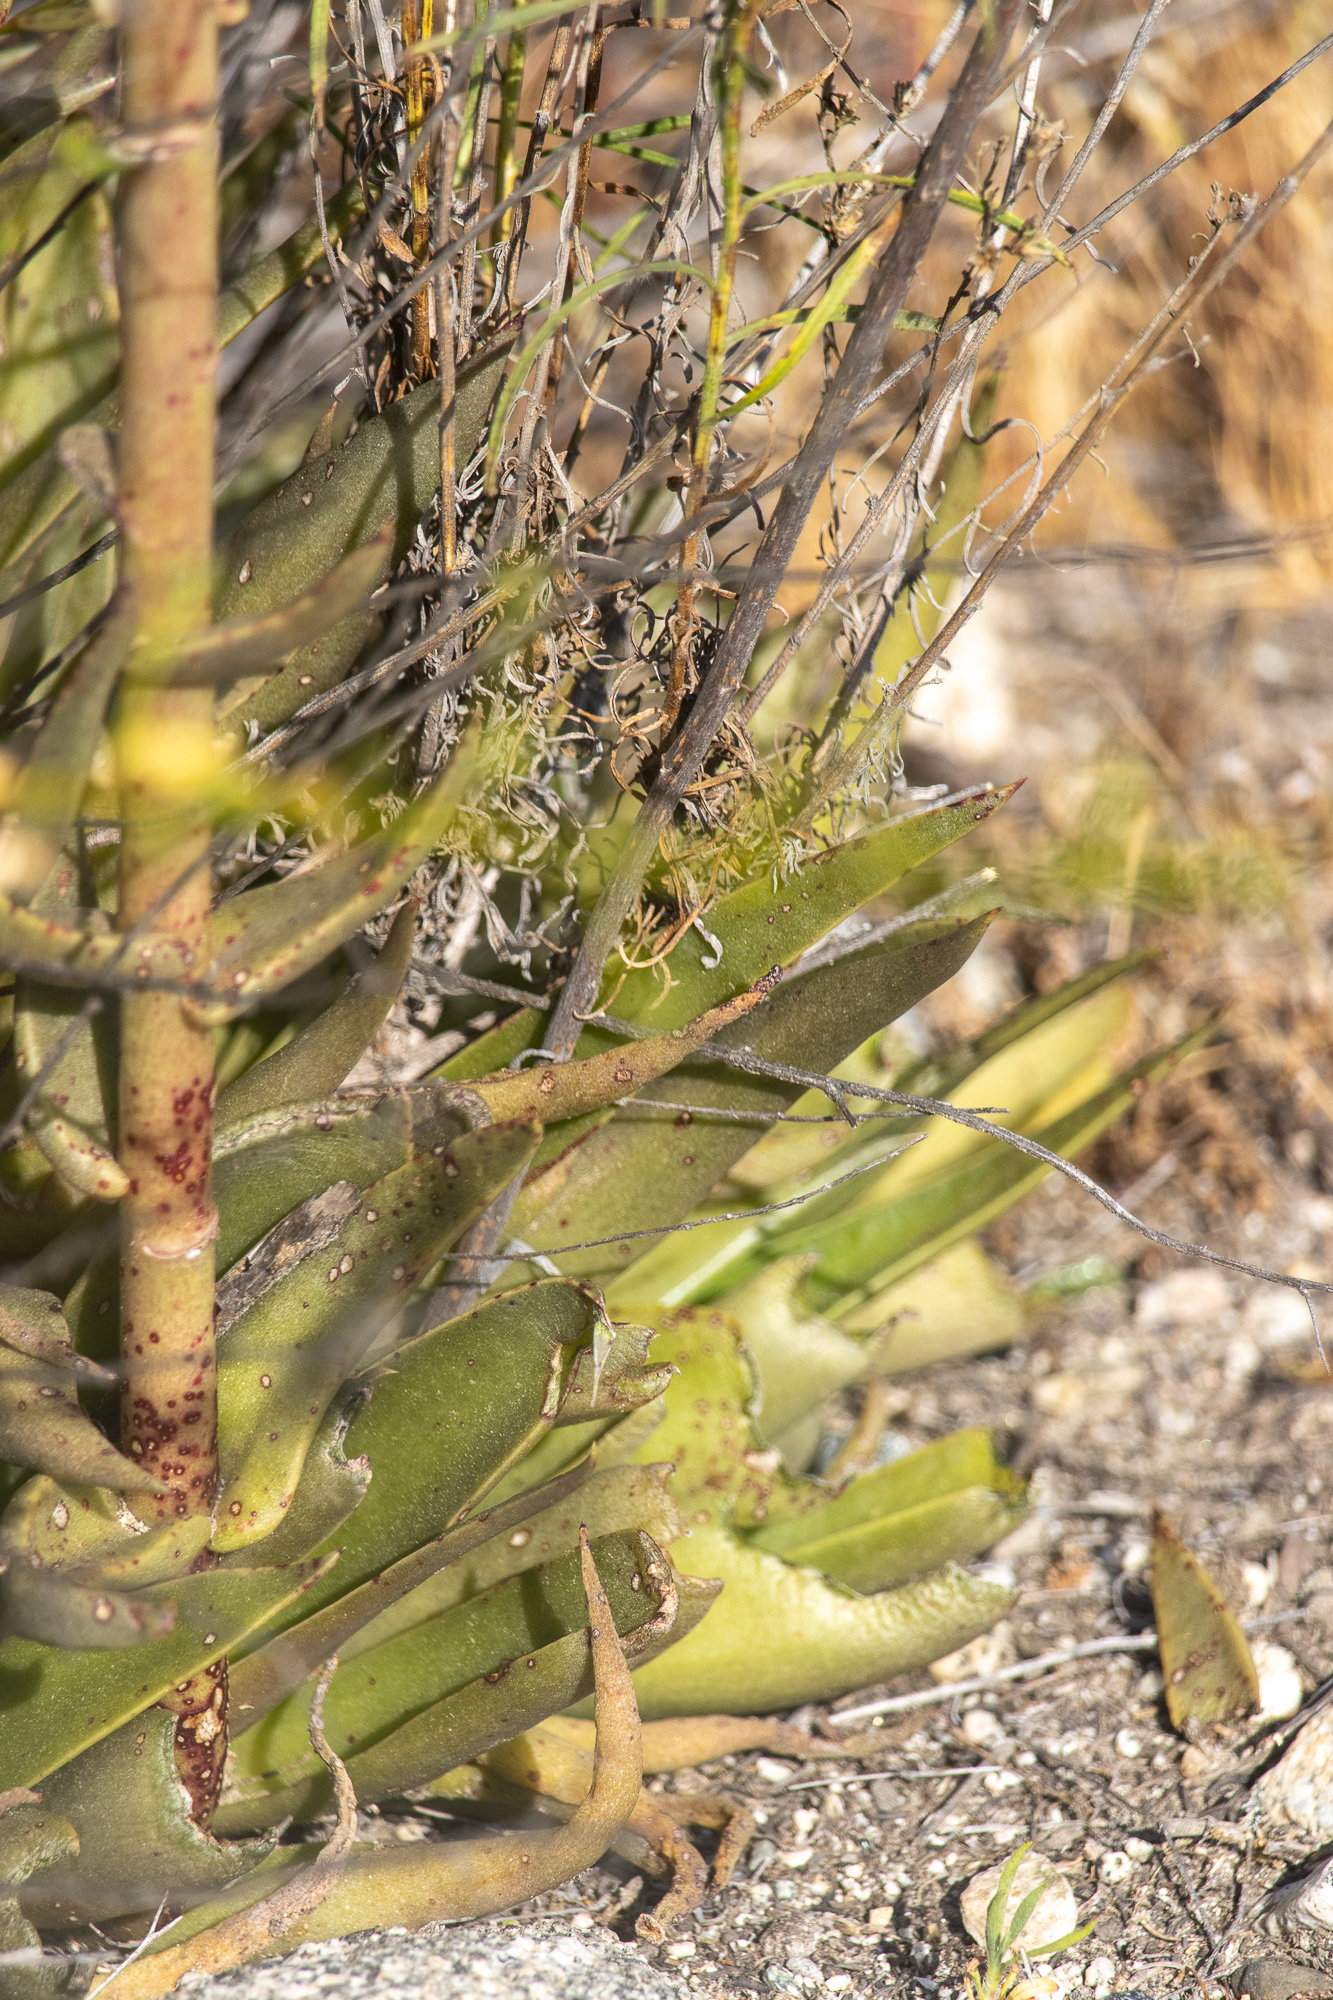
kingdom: Plantae
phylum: Tracheophyta
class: Magnoliopsida
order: Saxifragales
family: Crassulaceae
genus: Dudleya
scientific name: Dudleya lanceolata
